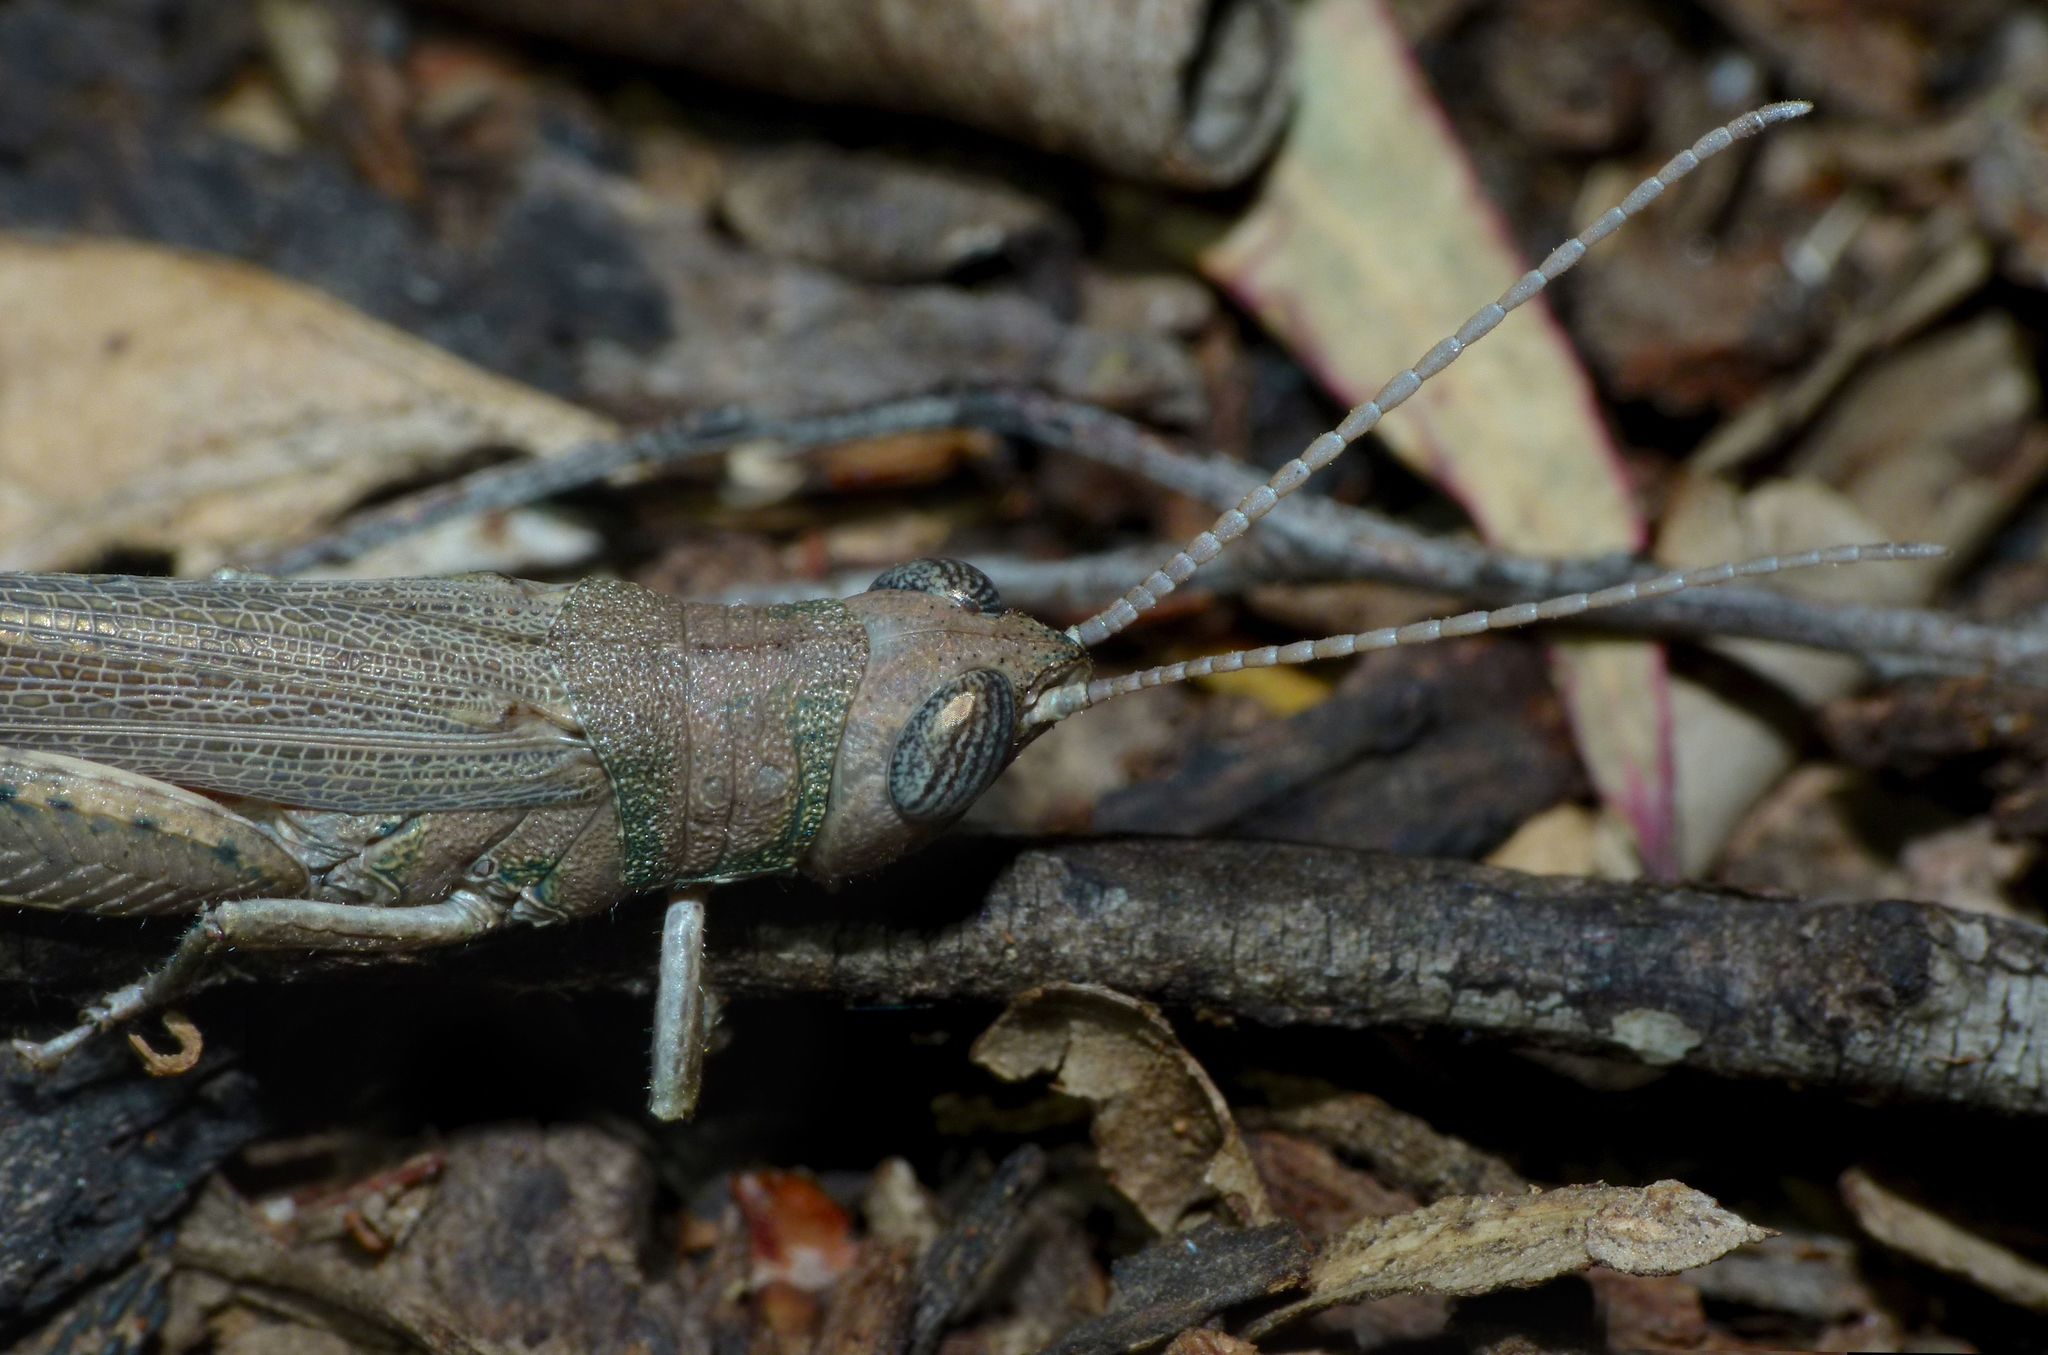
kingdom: Animalia
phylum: Arthropoda
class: Insecta
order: Orthoptera
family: Acrididae
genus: Pardillana
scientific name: Pardillana limbata
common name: Common pardillana
